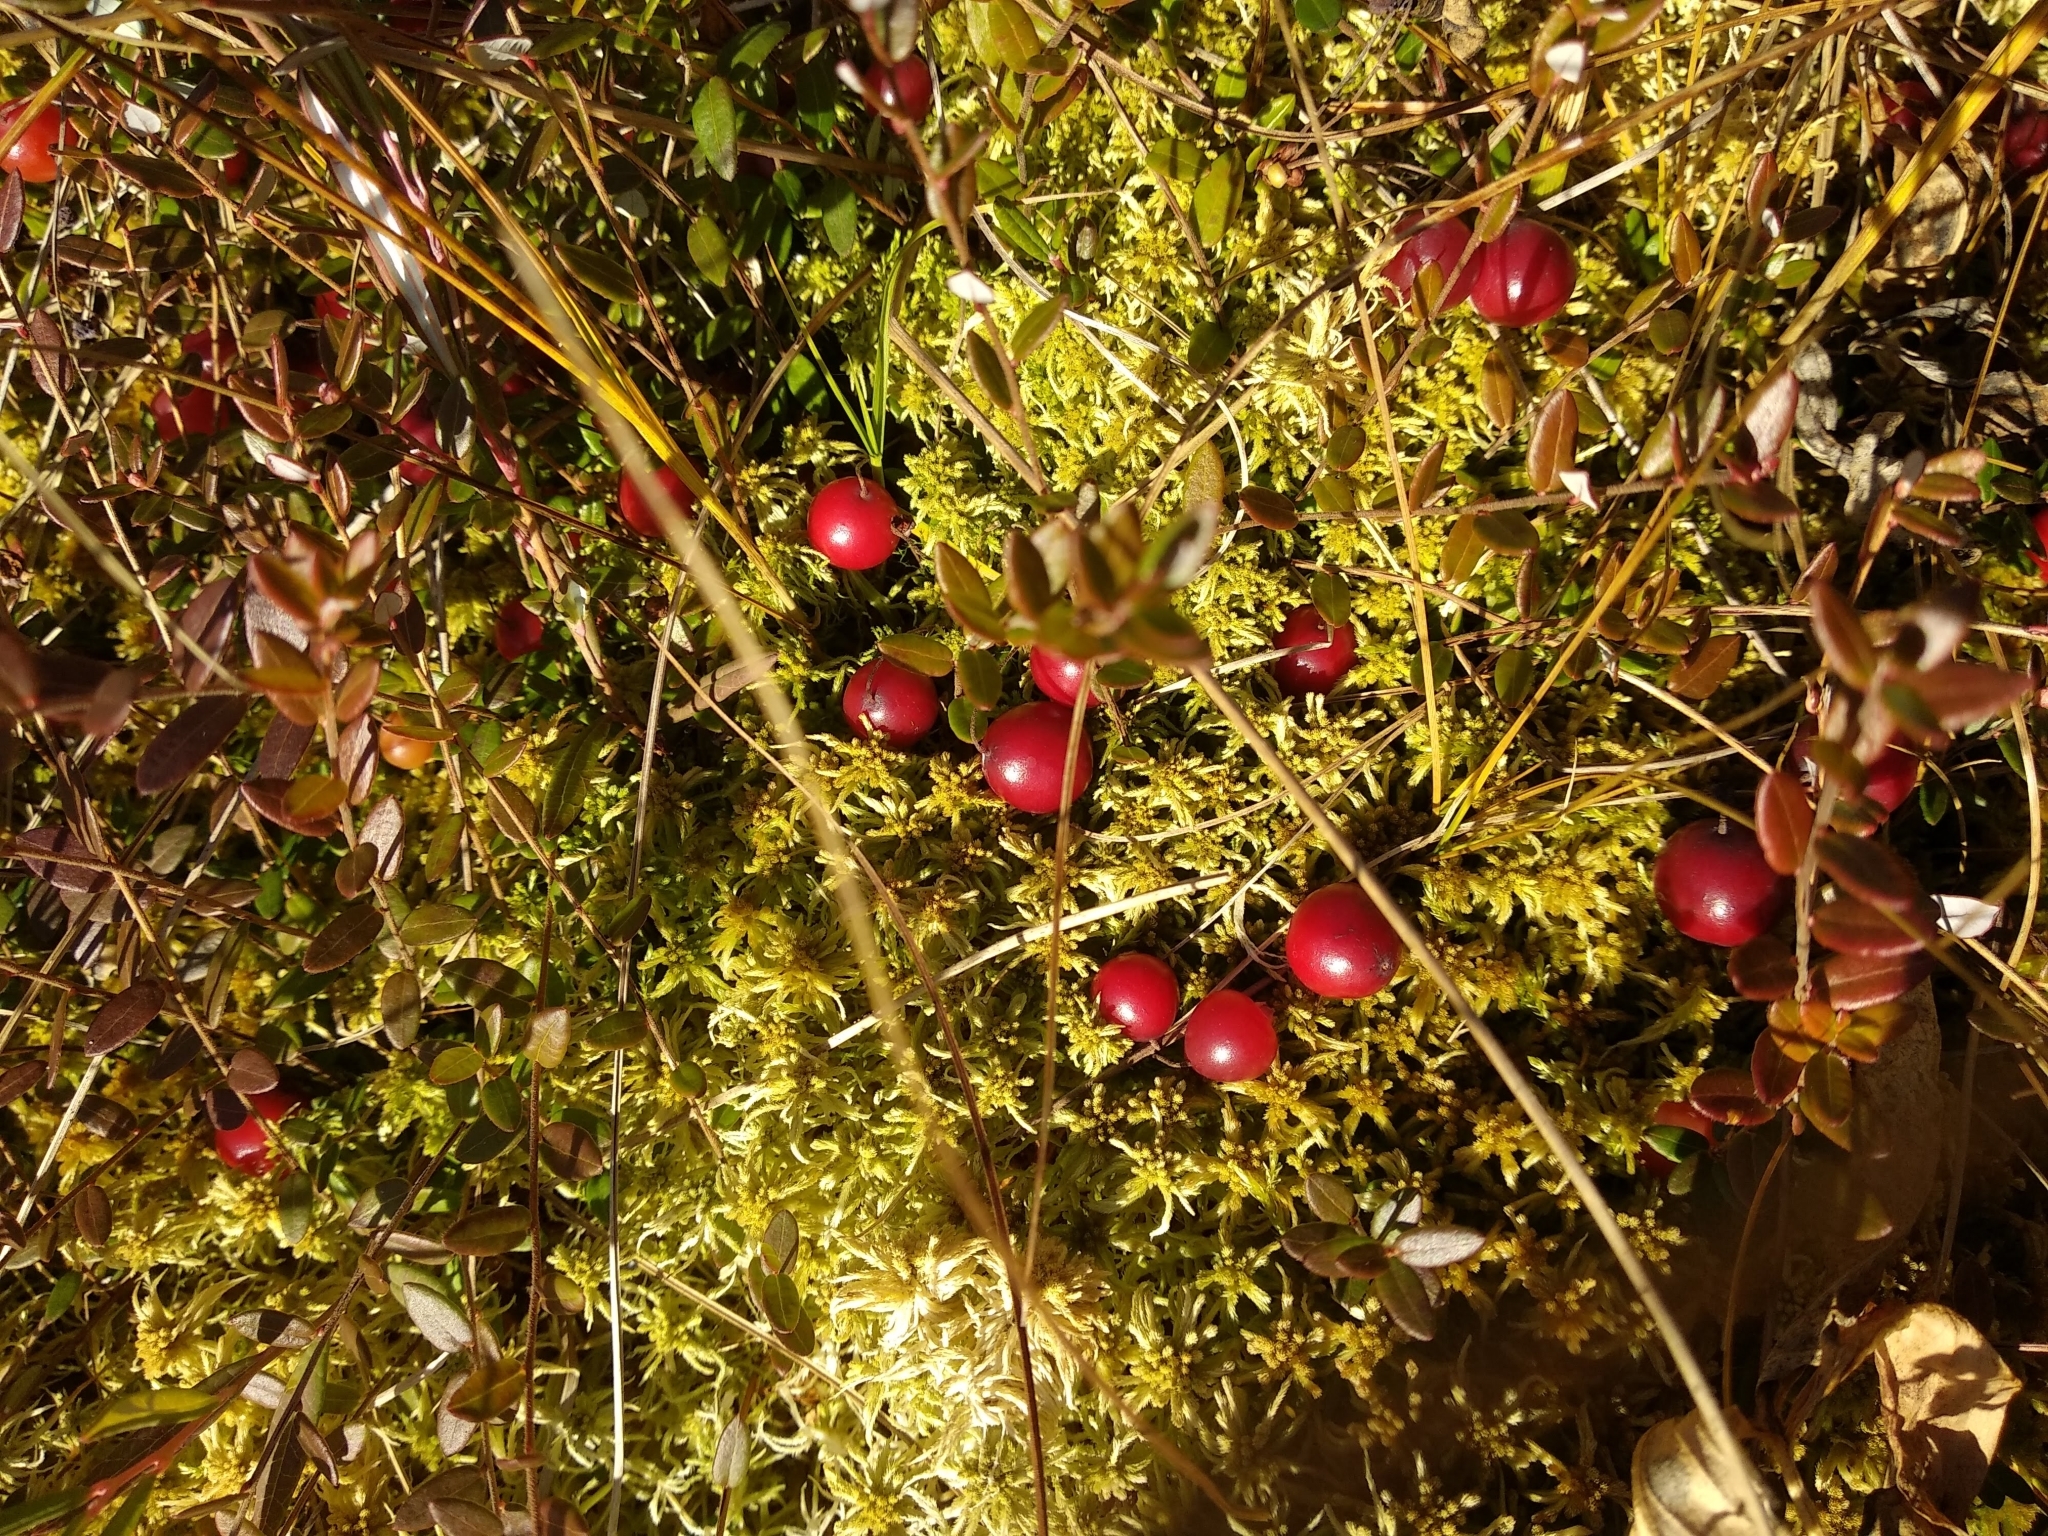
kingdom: Plantae
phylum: Tracheophyta
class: Magnoliopsida
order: Ericales
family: Ericaceae
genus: Vaccinium
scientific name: Vaccinium oxycoccos
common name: Cranberry
